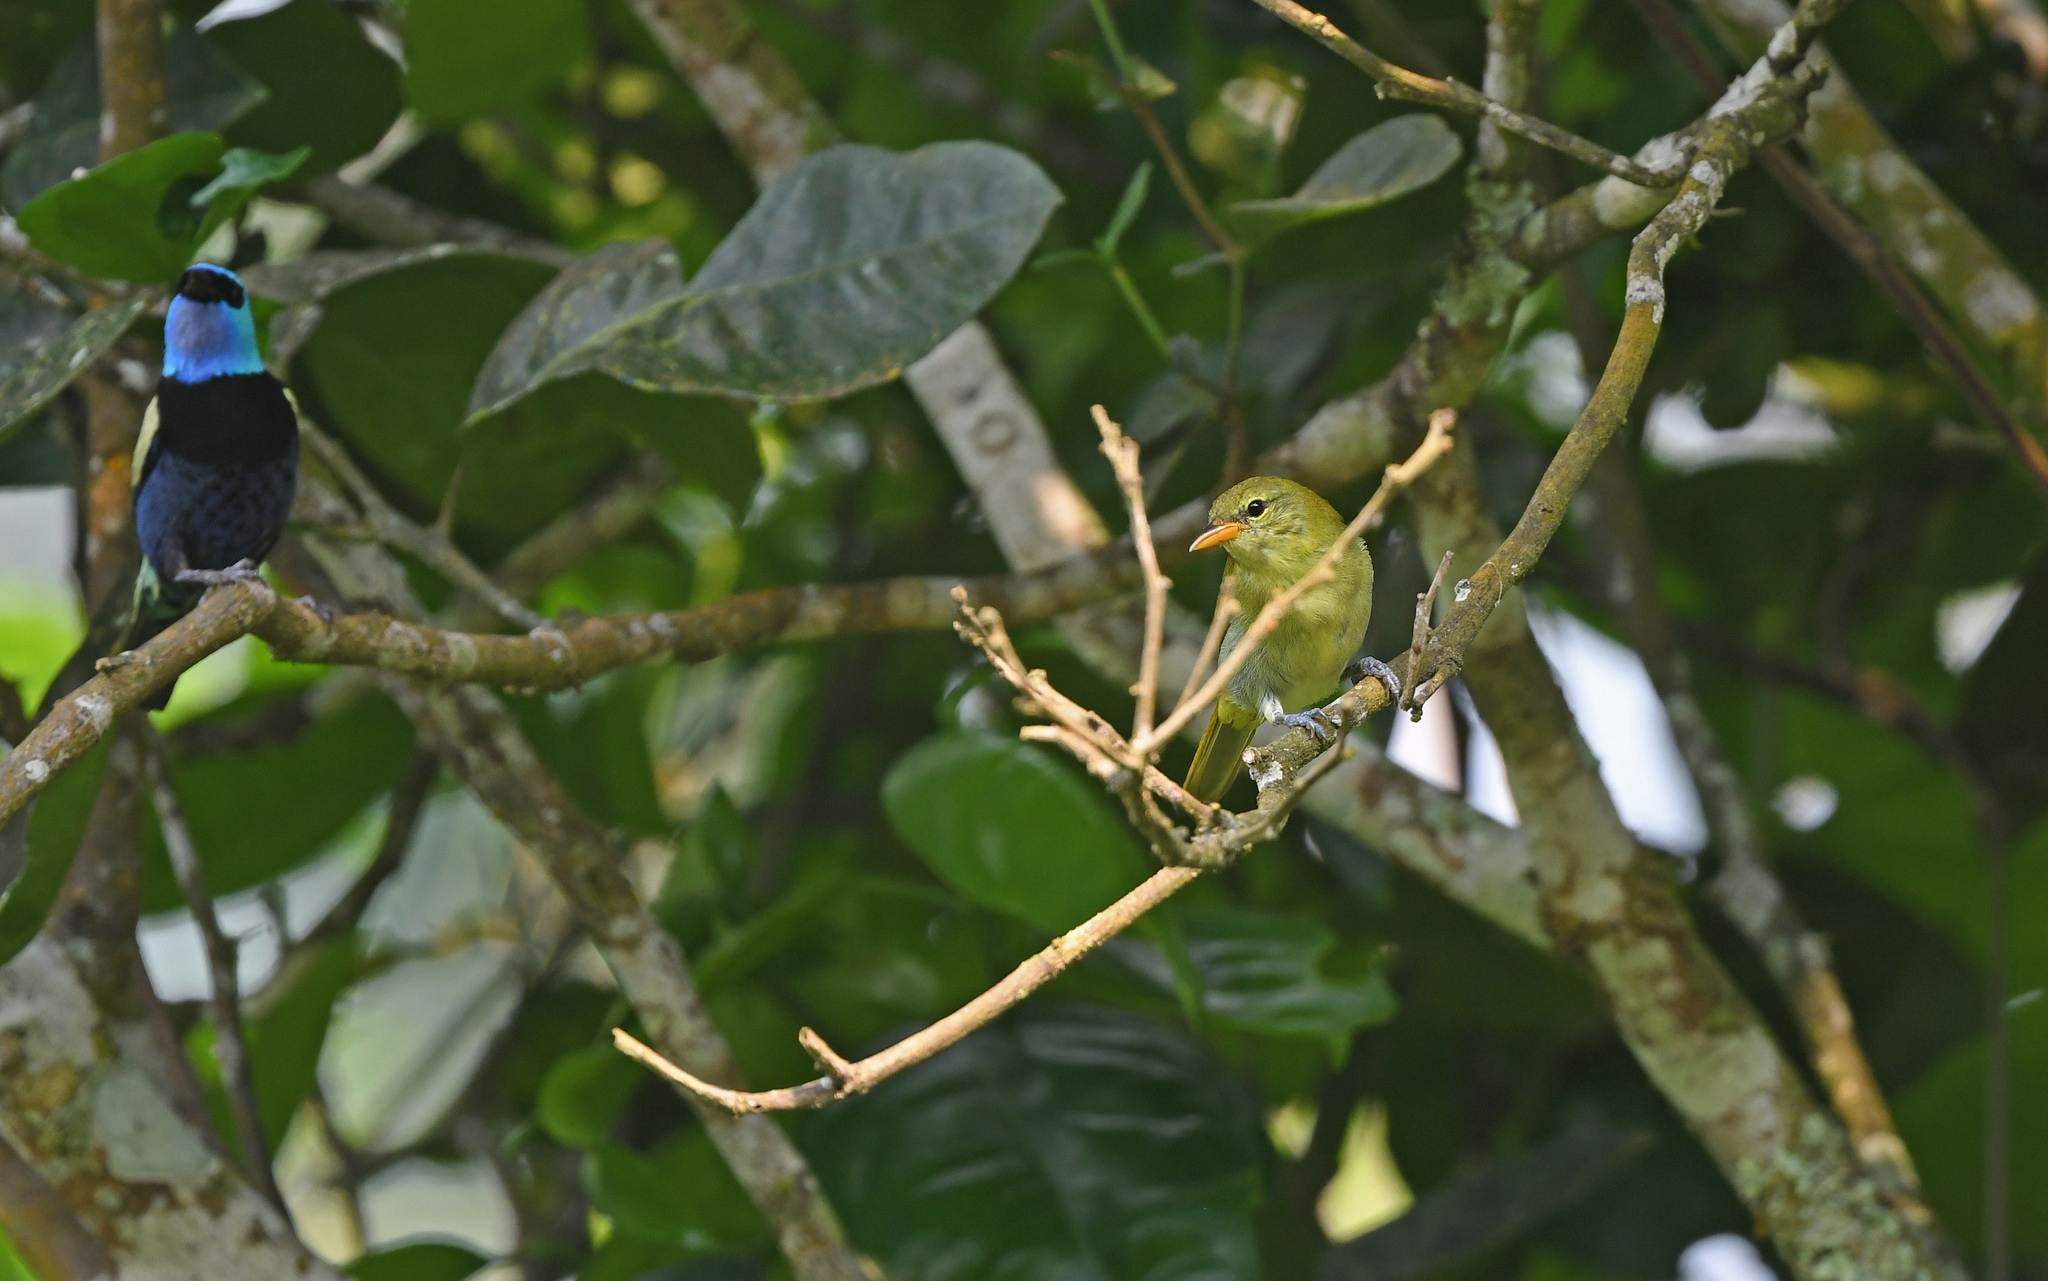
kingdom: Animalia
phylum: Chordata
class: Aves
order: Passeriformes
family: Thraupidae
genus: Hemithraupis
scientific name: Hemithraupis guira
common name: Guira tanager
